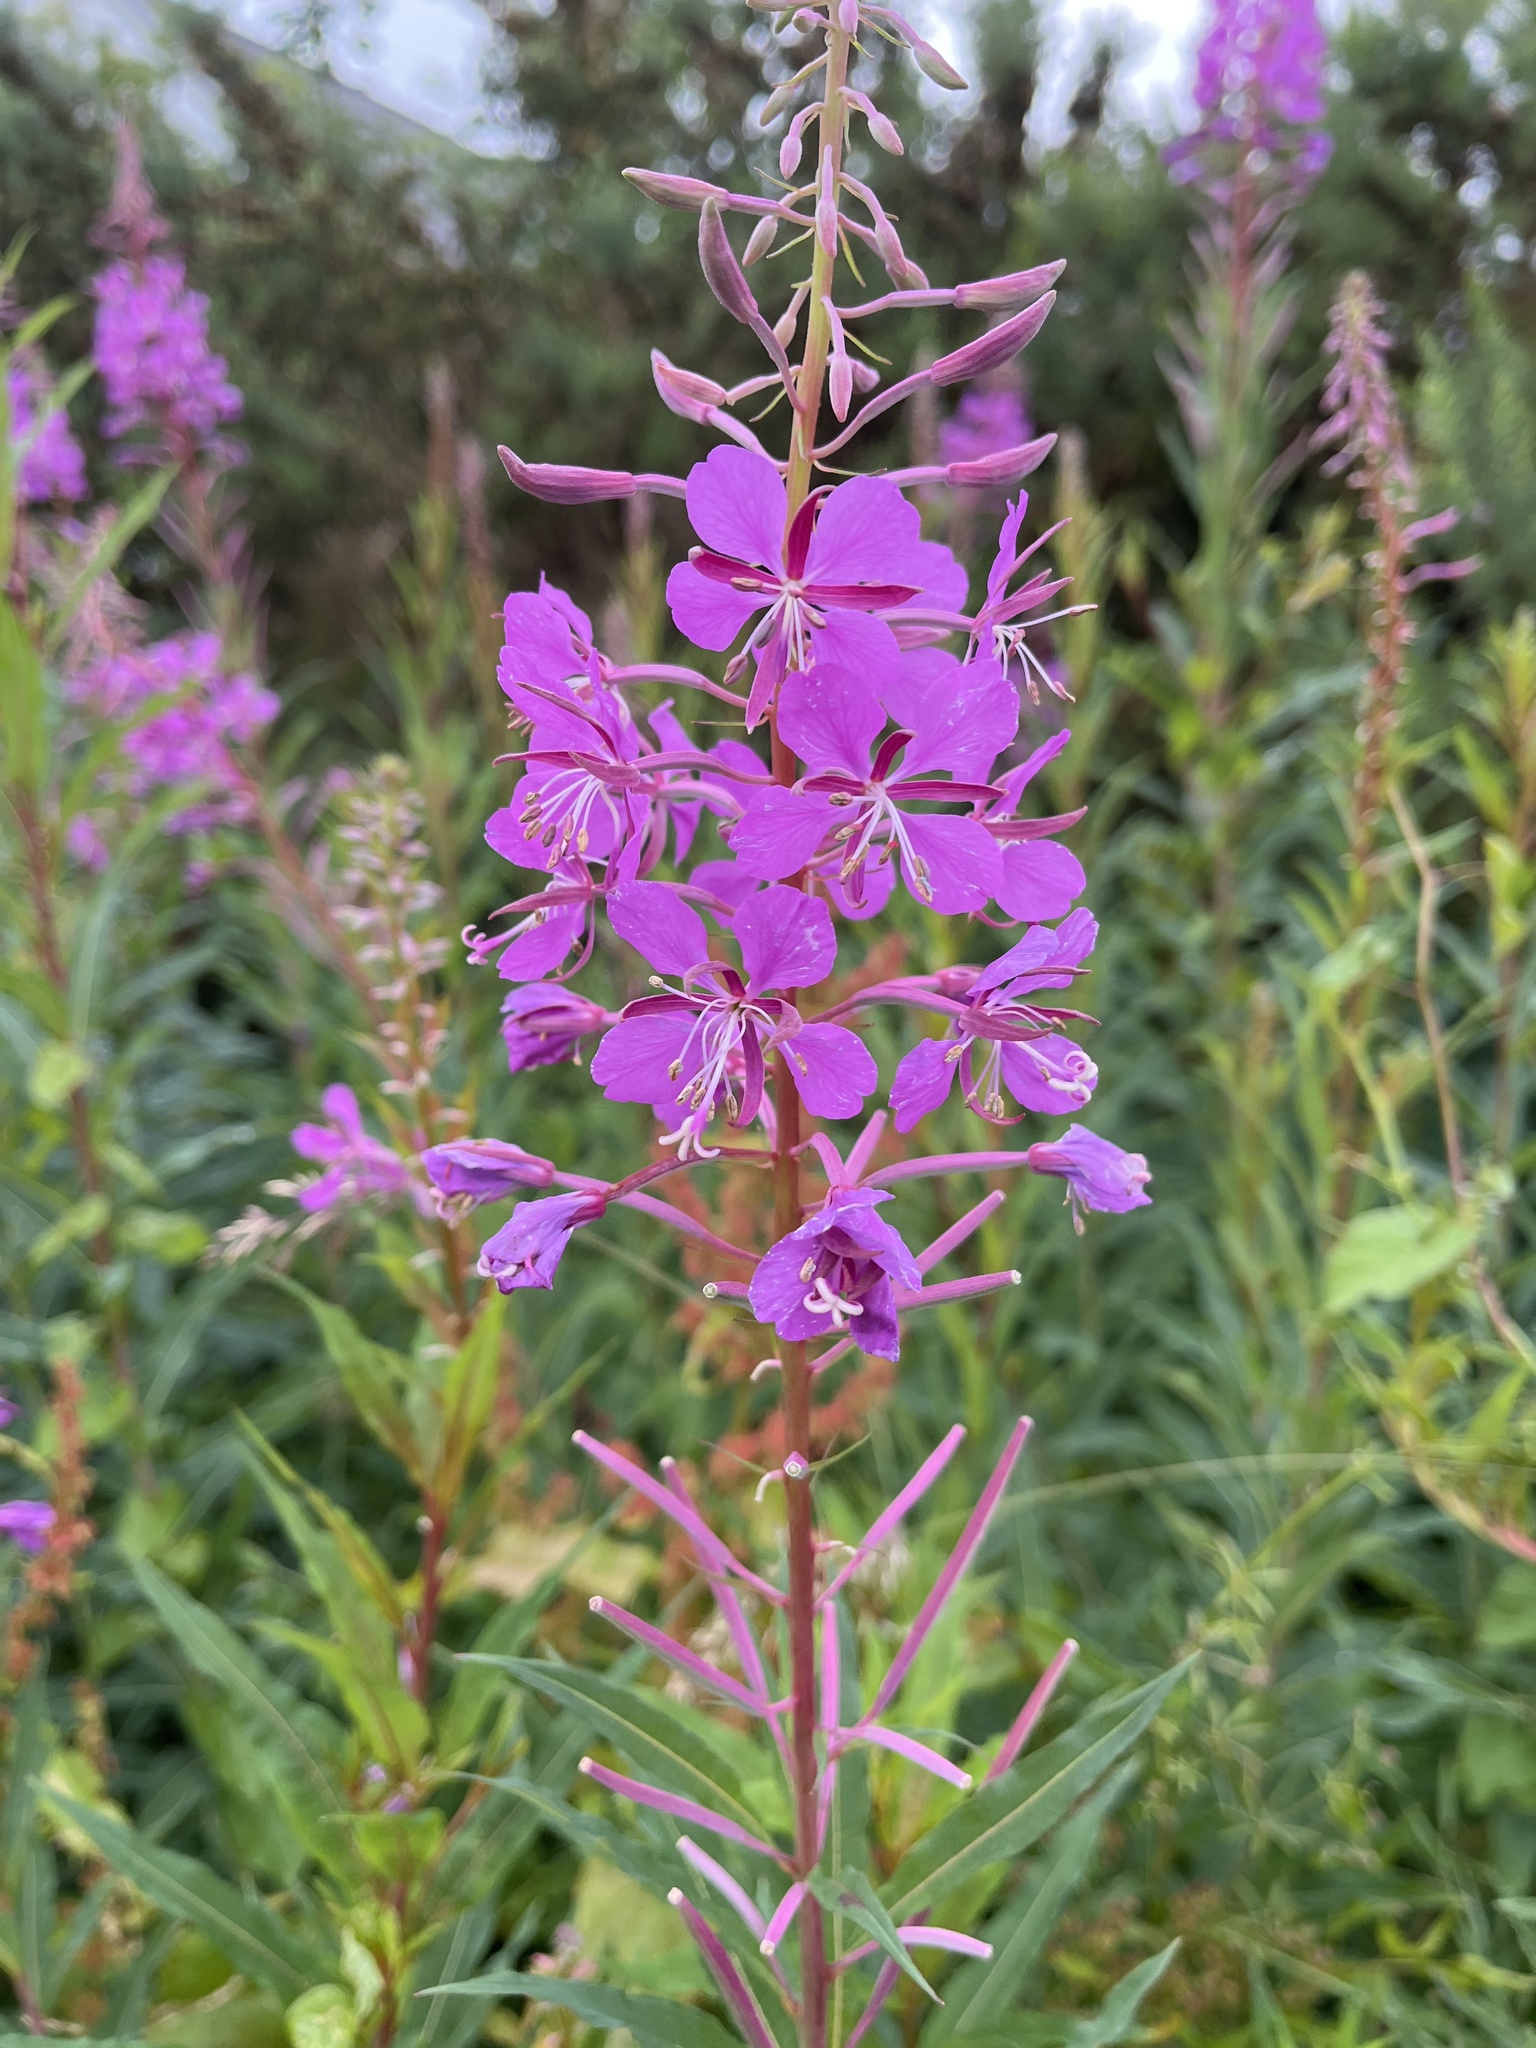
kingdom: Plantae
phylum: Tracheophyta
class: Magnoliopsida
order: Myrtales
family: Onagraceae
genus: Chamaenerion
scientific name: Chamaenerion angustifolium
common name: Fireweed
